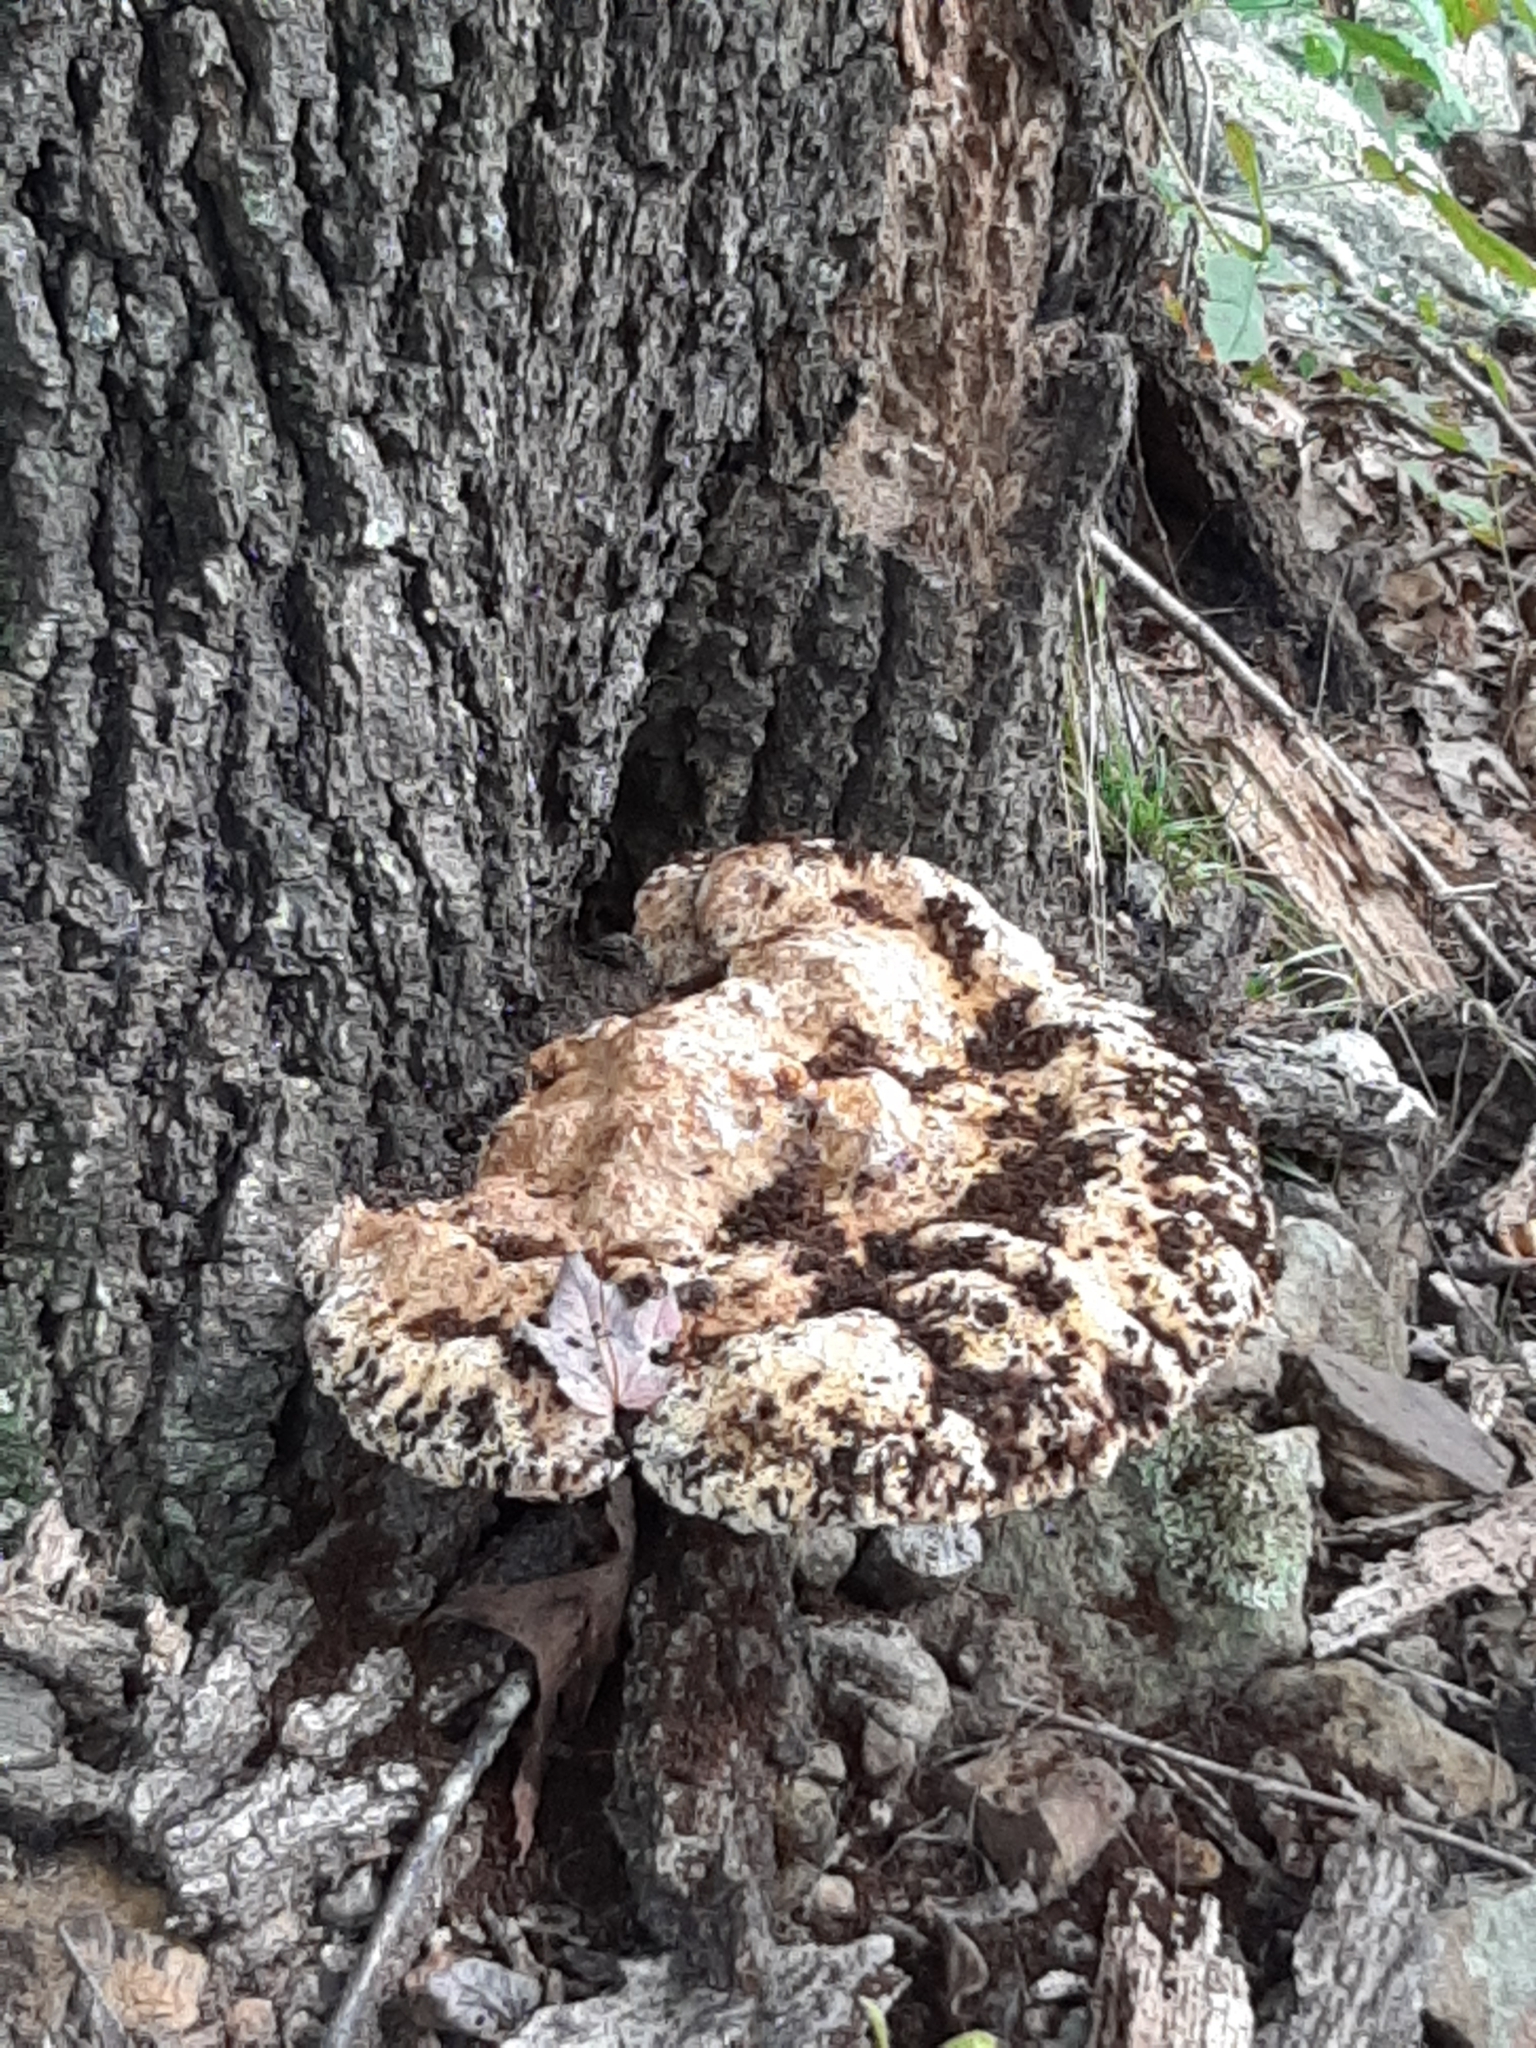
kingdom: Fungi
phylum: Basidiomycota
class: Agaricomycetes
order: Hymenochaetales
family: Hymenochaetaceae
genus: Pseudoinonotus
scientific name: Pseudoinonotus dryadeus
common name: Oak bracket
